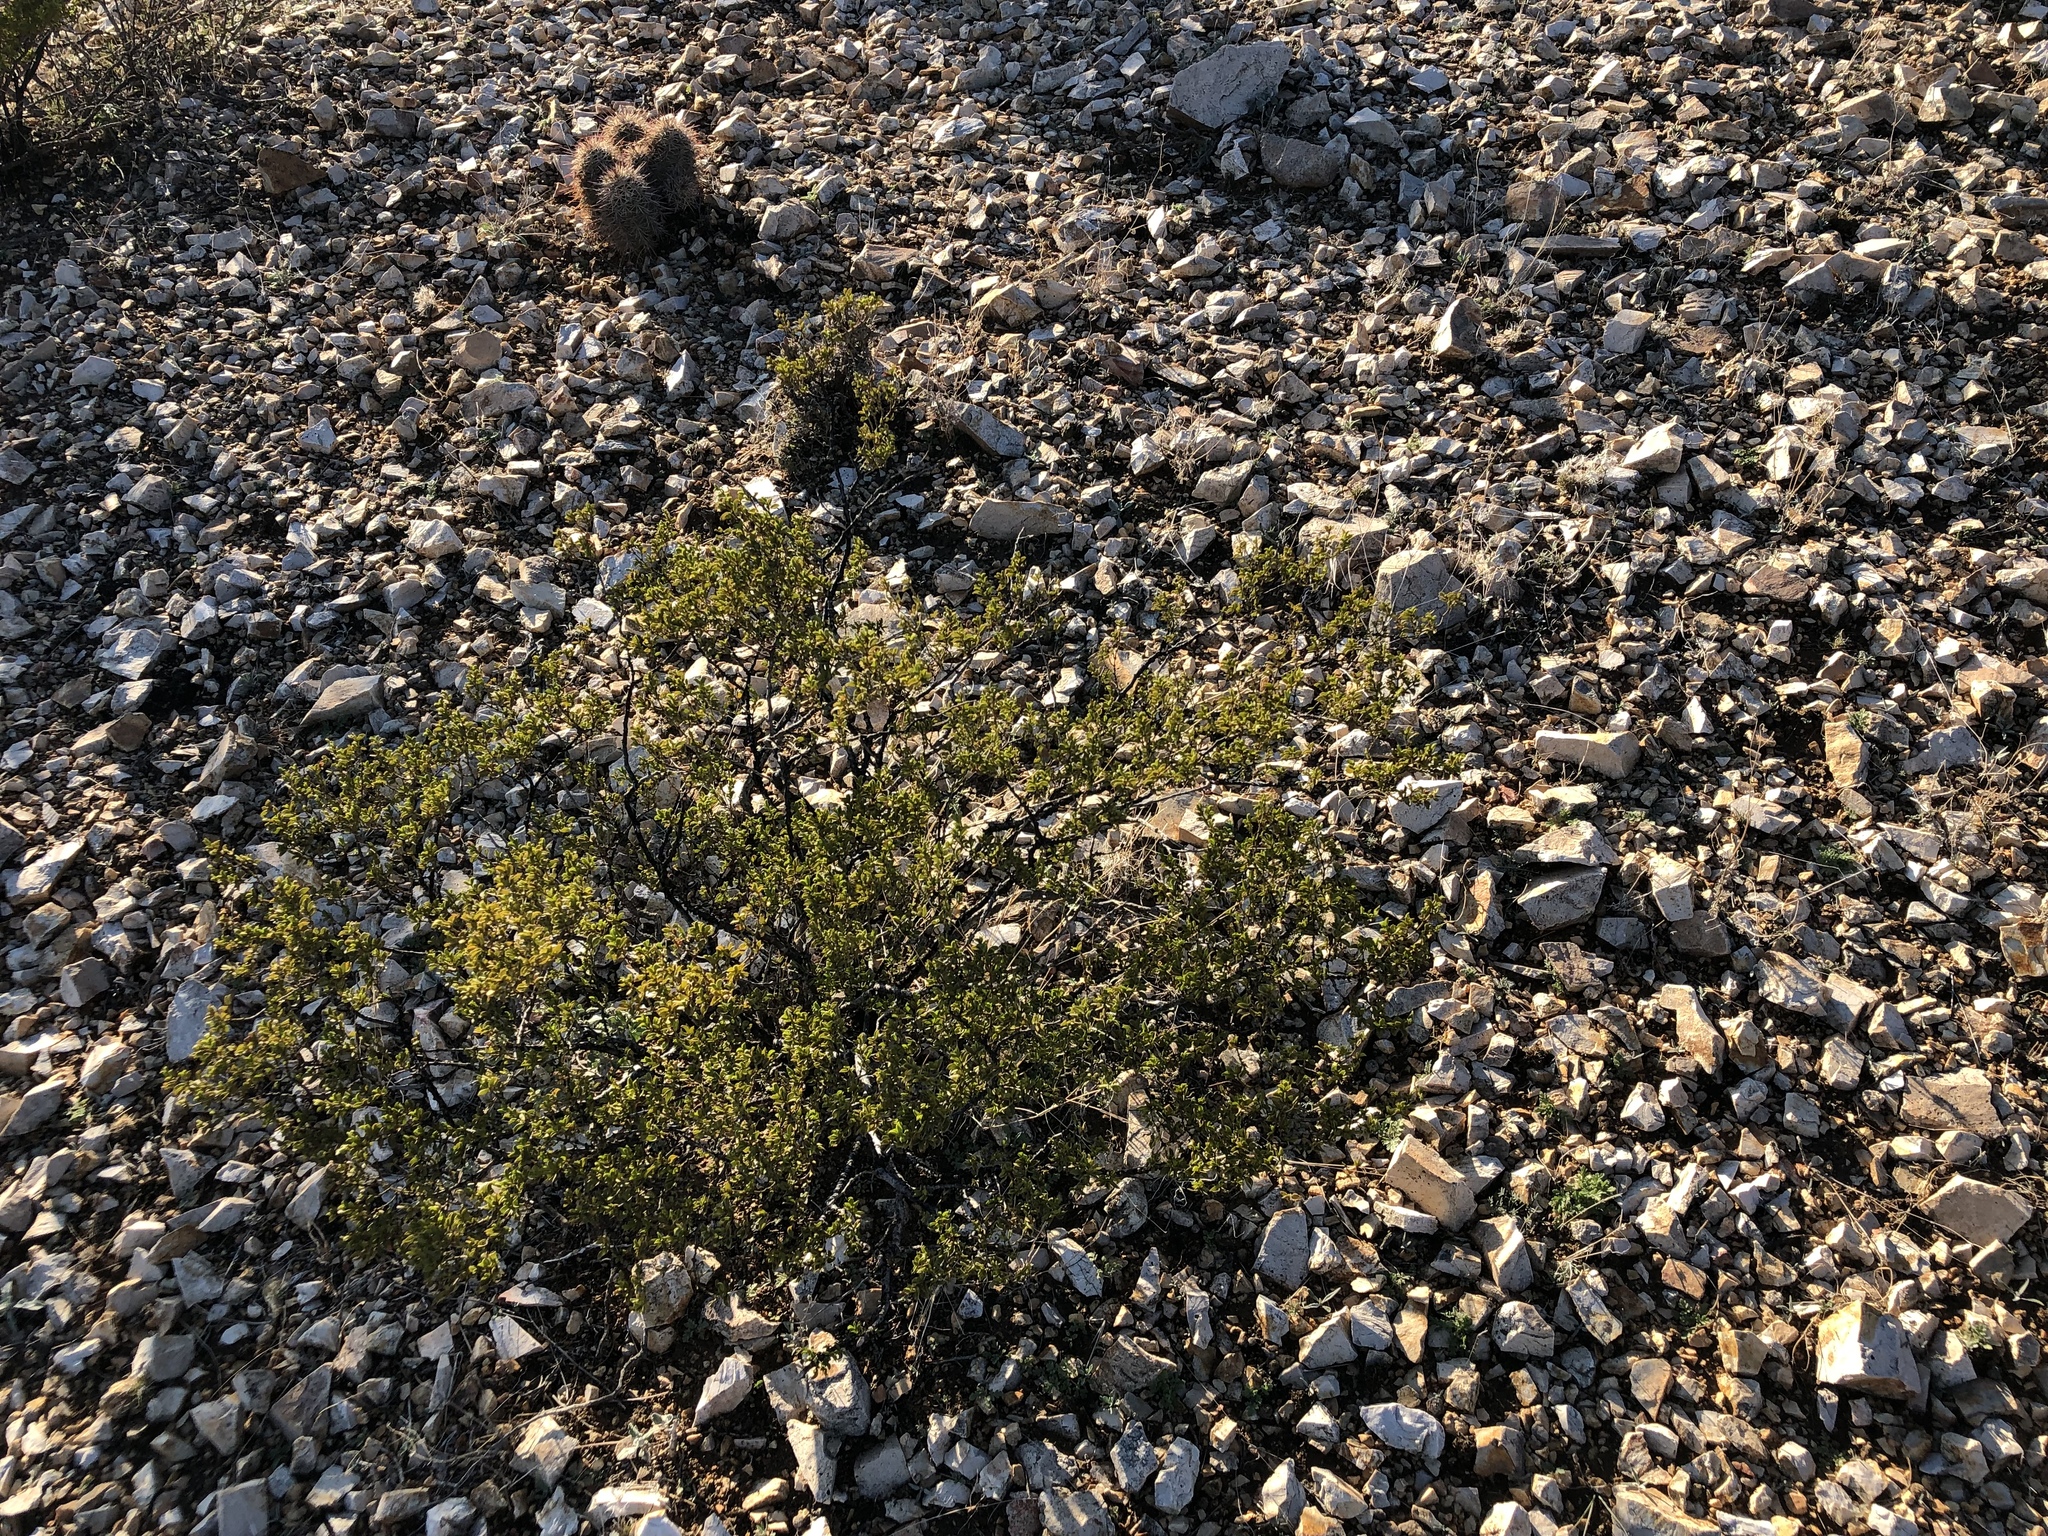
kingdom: Plantae
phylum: Tracheophyta
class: Magnoliopsida
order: Zygophyllales
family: Zygophyllaceae
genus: Larrea
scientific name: Larrea tridentata
